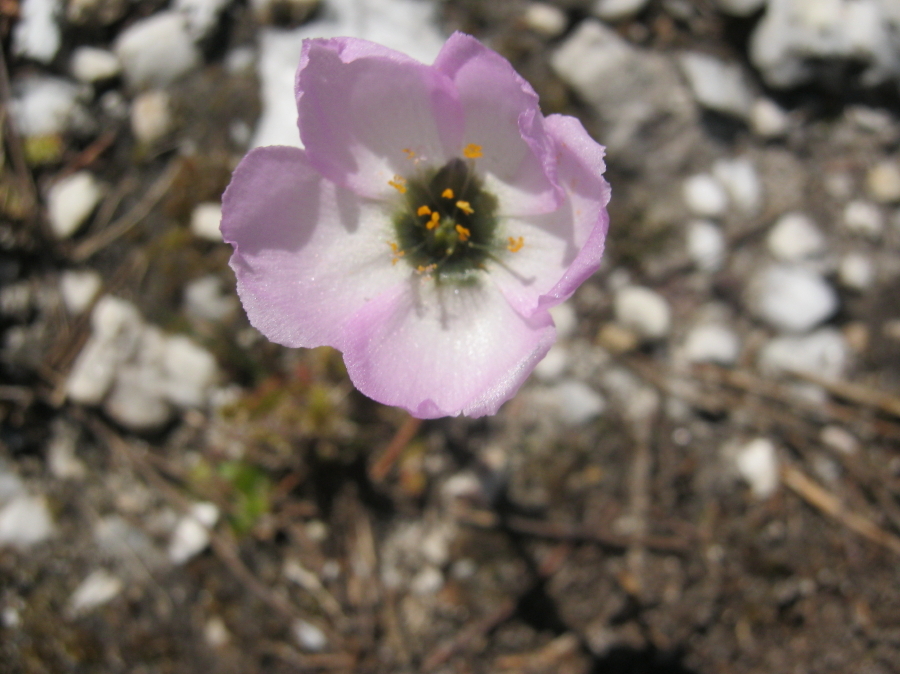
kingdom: Plantae
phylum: Tracheophyta
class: Magnoliopsida
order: Caryophyllales
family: Droseraceae
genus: Drosera
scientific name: Drosera cistiflora
